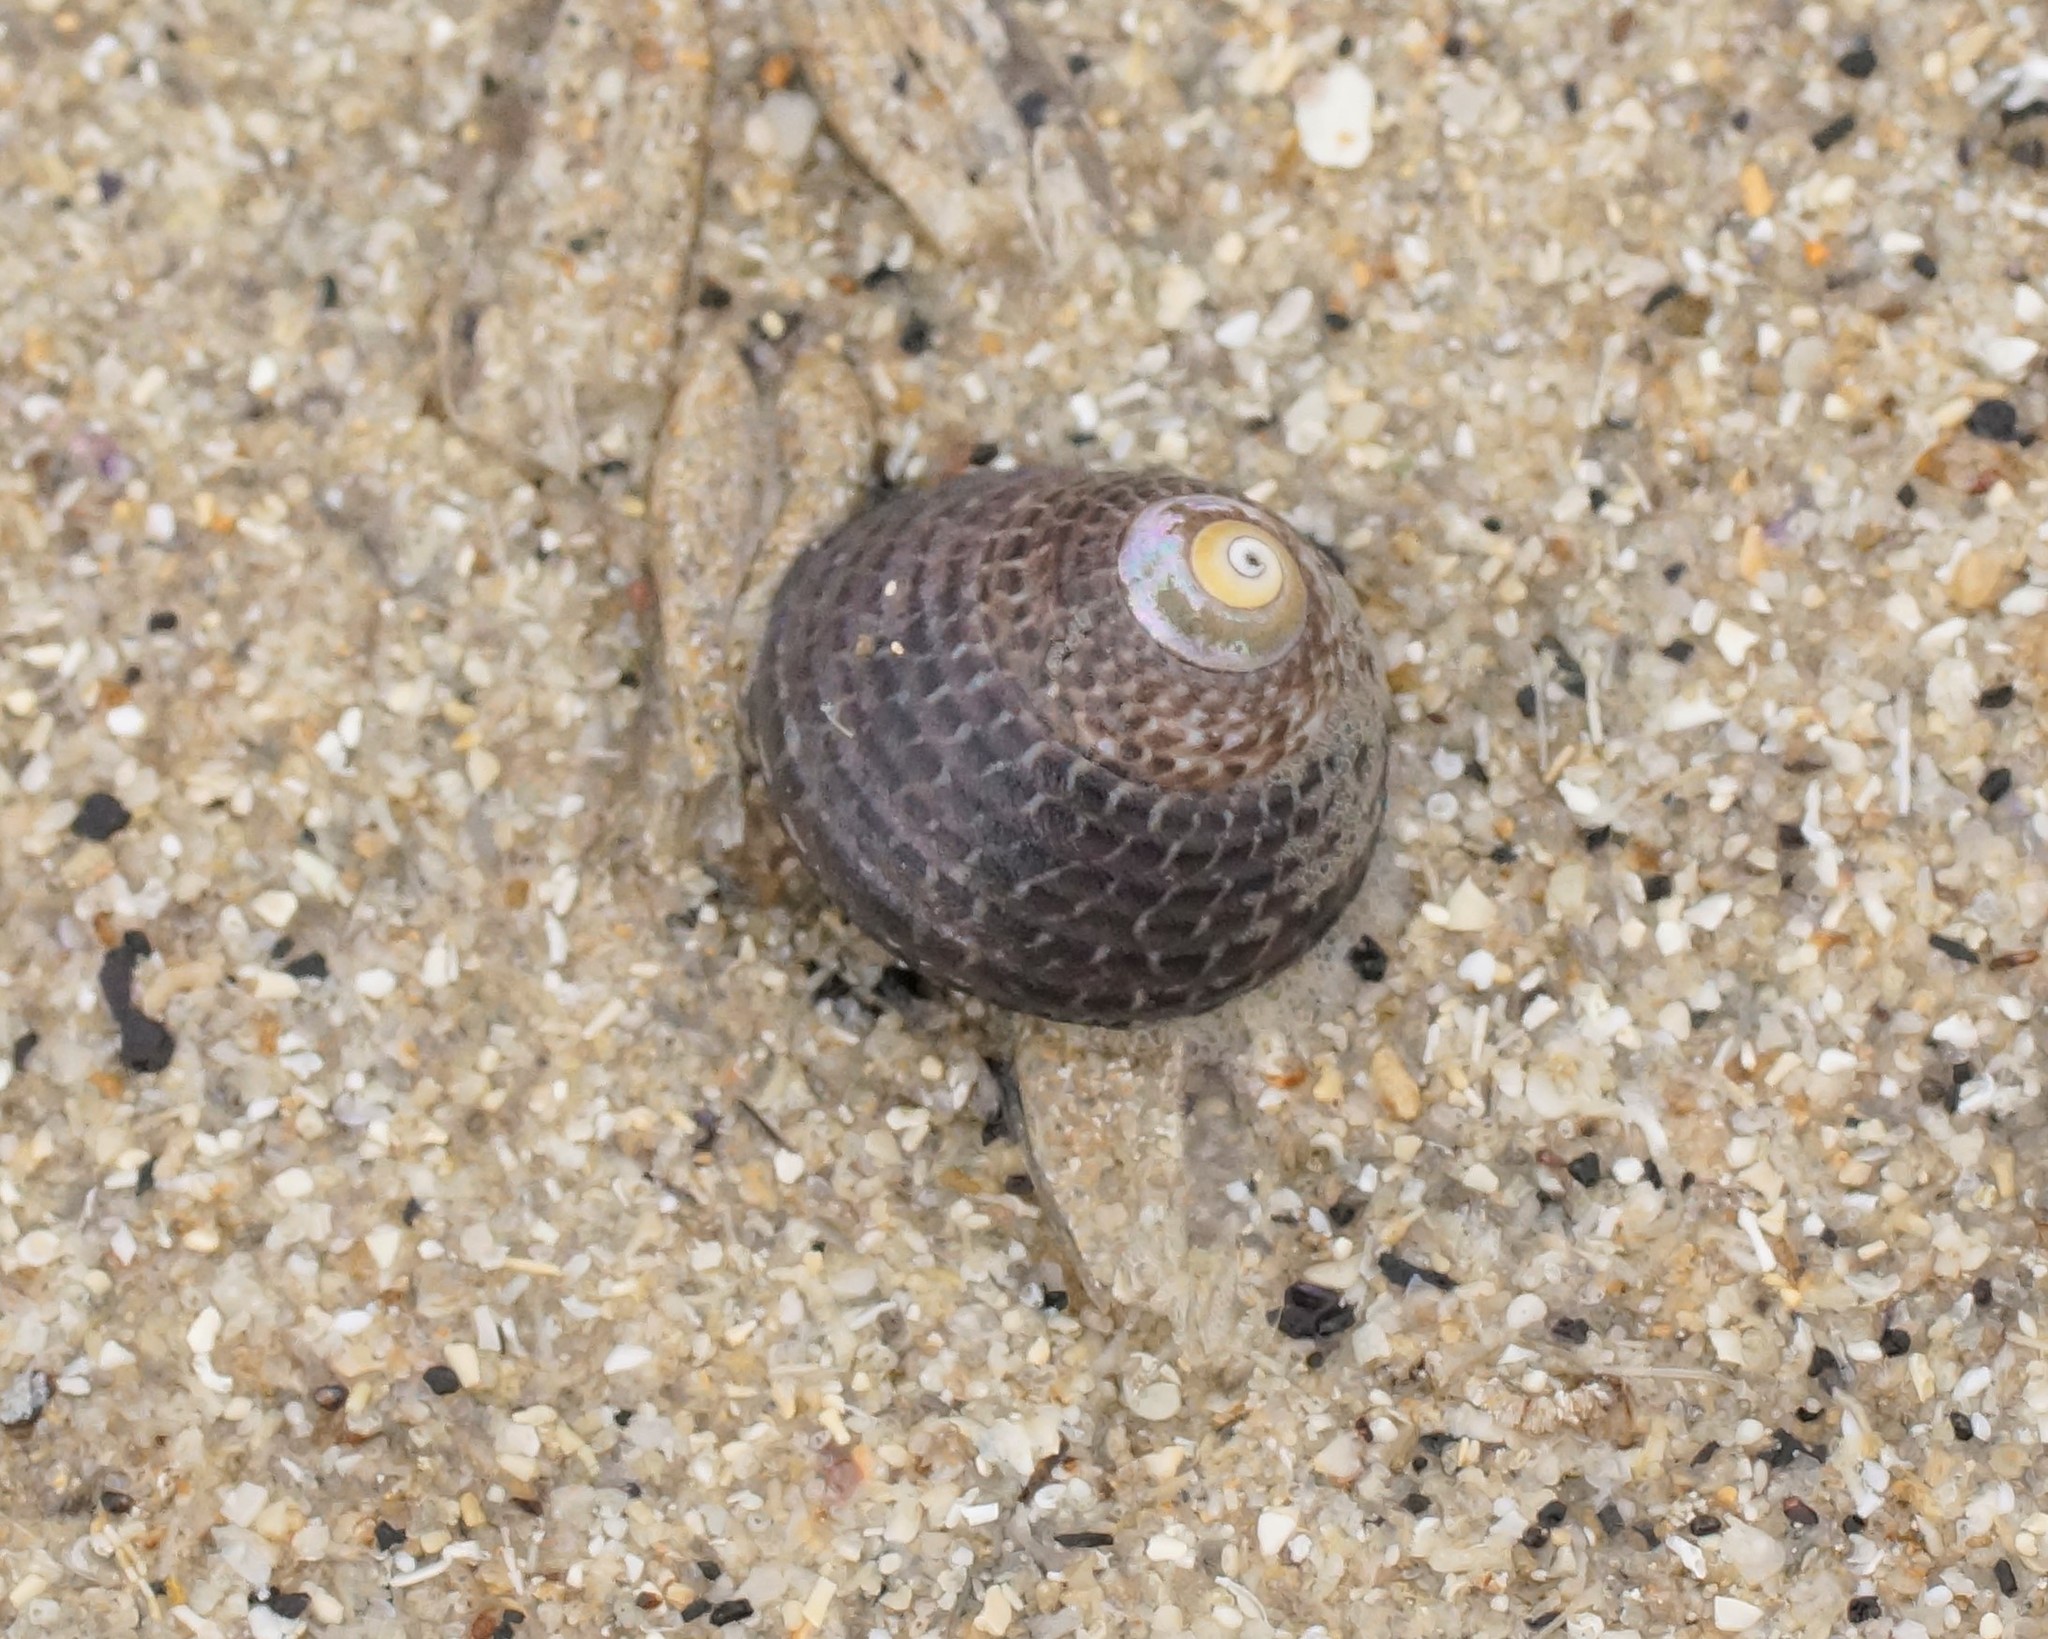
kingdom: Animalia
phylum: Mollusca
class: Gastropoda
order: Trochida
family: Trochidae
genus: Chlorodiloma
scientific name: Chlorodiloma adelaidae
